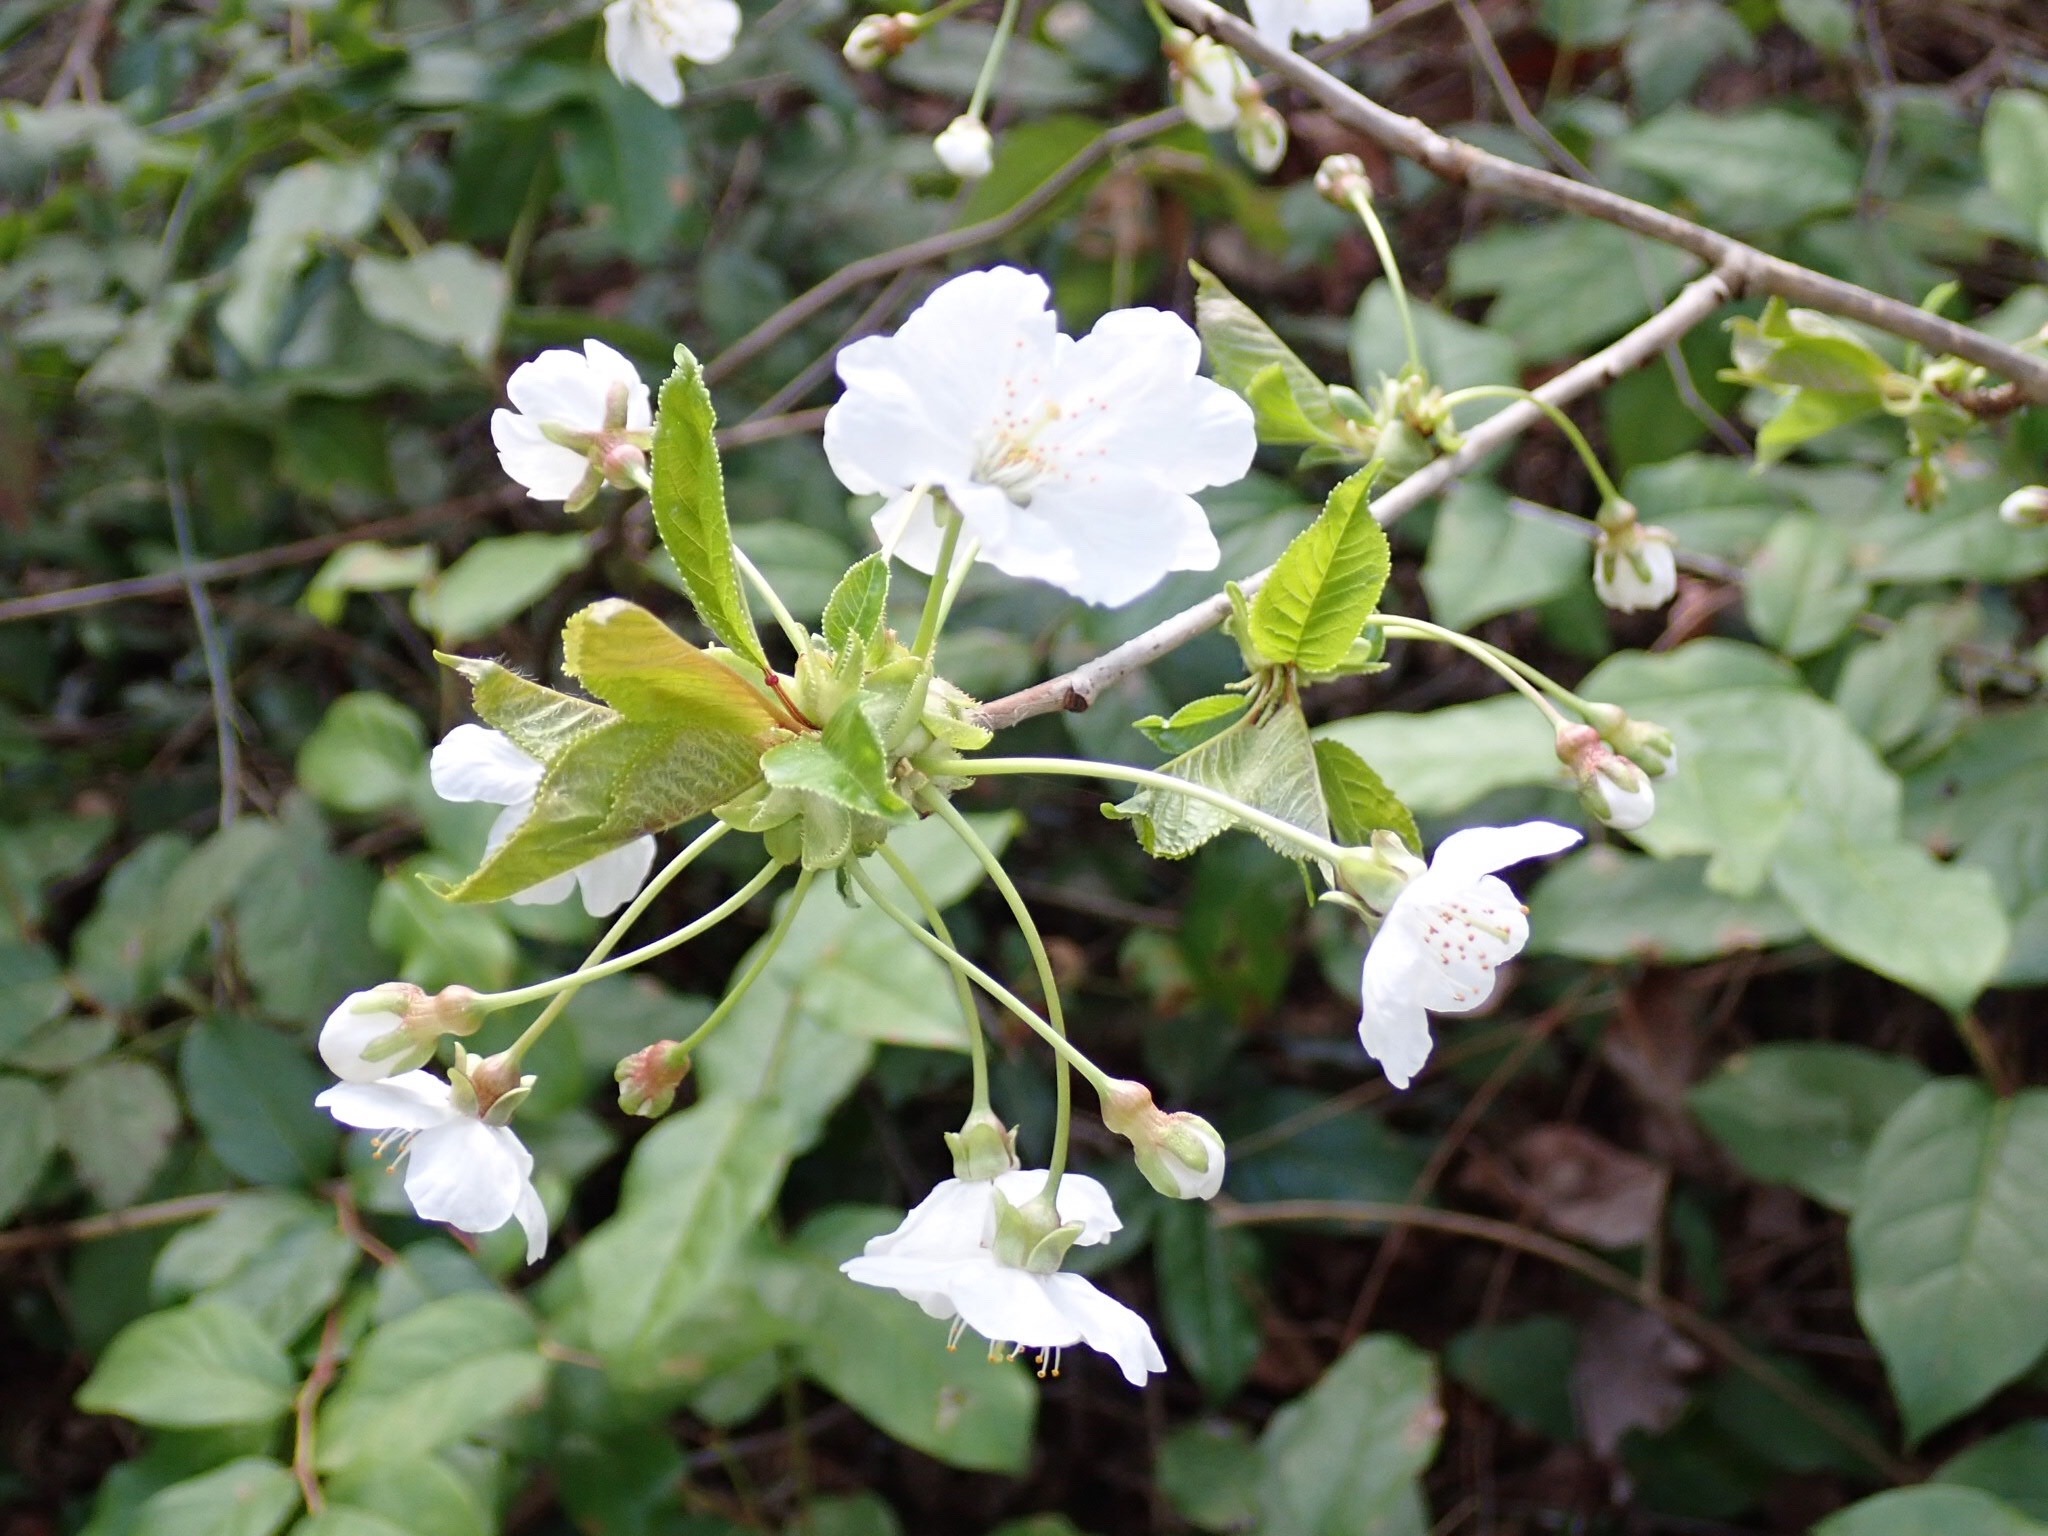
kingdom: Plantae
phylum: Tracheophyta
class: Magnoliopsida
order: Rosales
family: Rosaceae
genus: Prunus
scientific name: Prunus avium
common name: Sweet cherry
